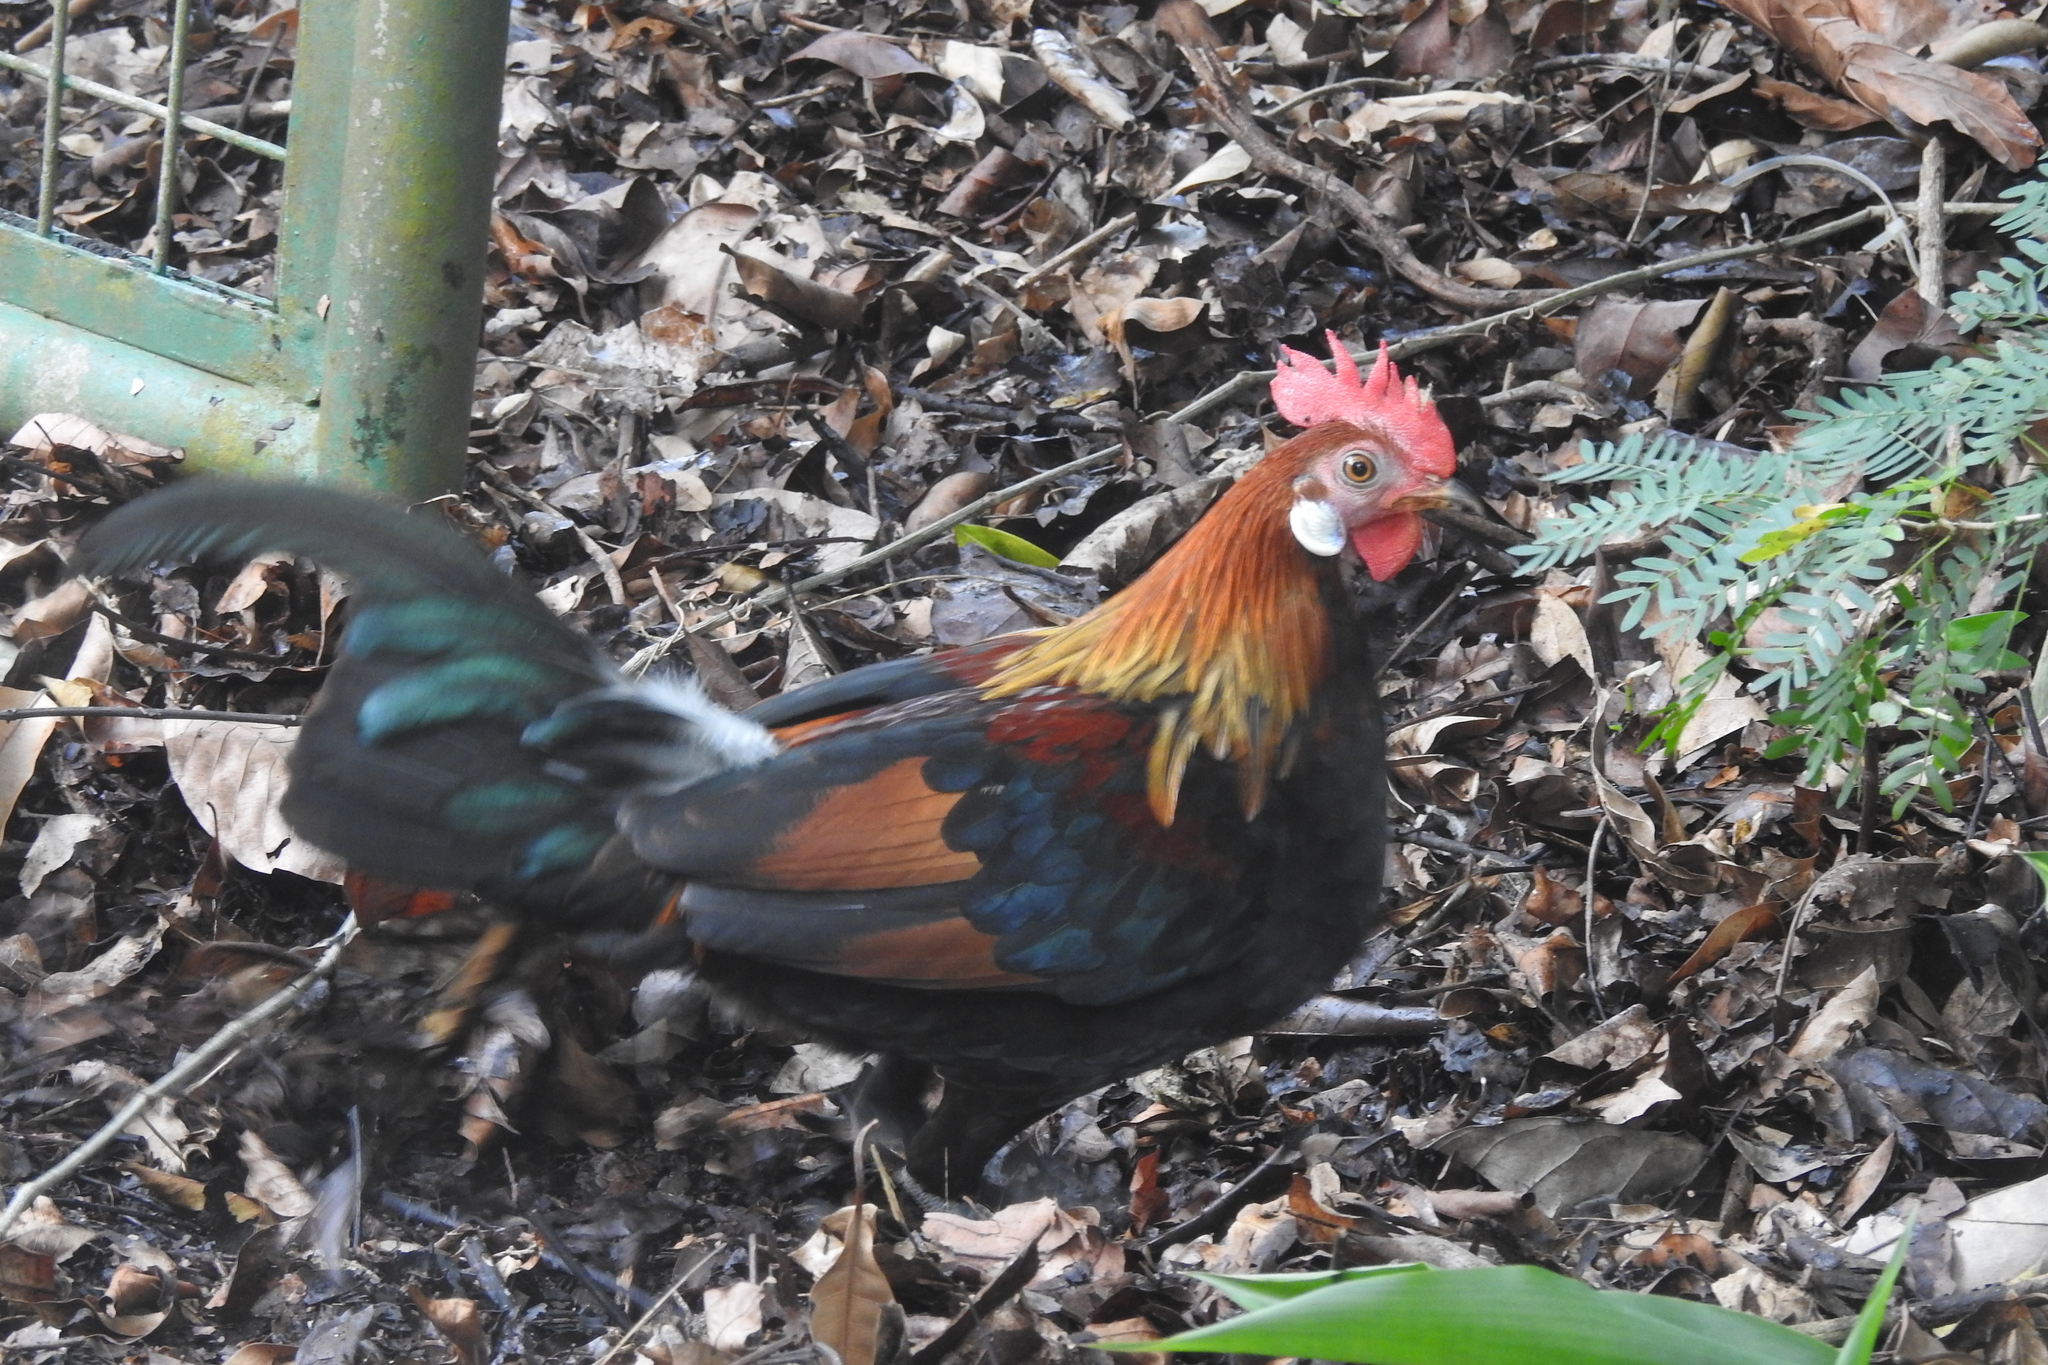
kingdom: Animalia
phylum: Chordata
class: Aves
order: Galliformes
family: Phasianidae
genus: Gallus
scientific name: Gallus gallus
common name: Red junglefowl
